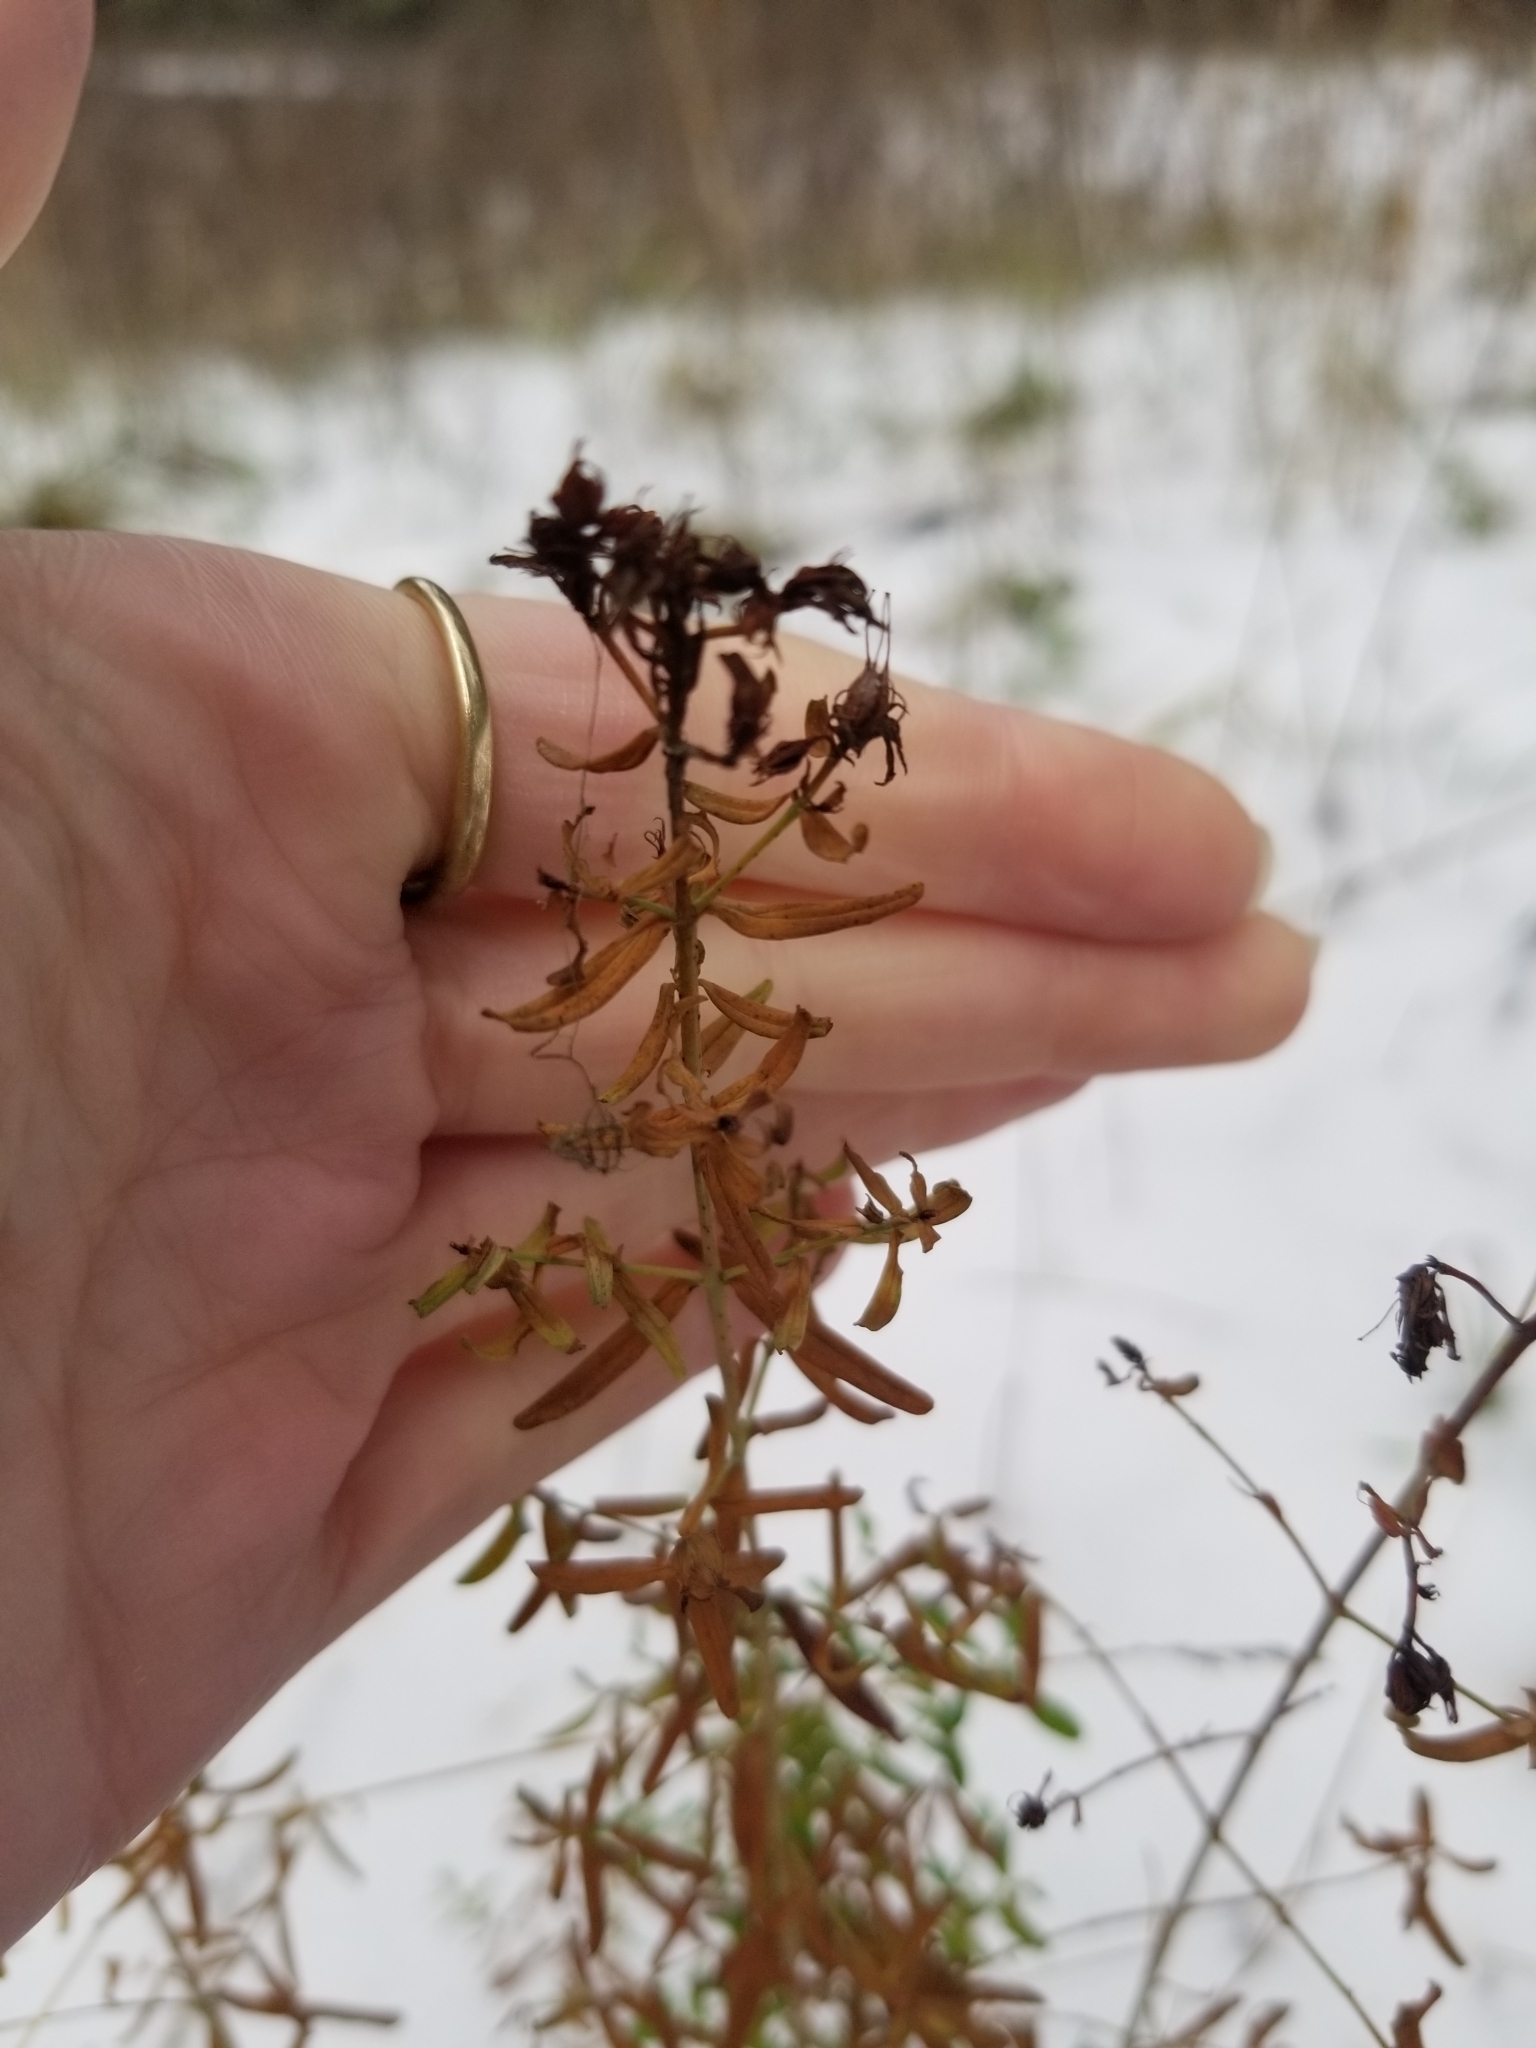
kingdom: Plantae
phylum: Tracheophyta
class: Magnoliopsida
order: Malpighiales
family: Hypericaceae
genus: Hypericum
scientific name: Hypericum perforatum
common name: Common st. johnswort
